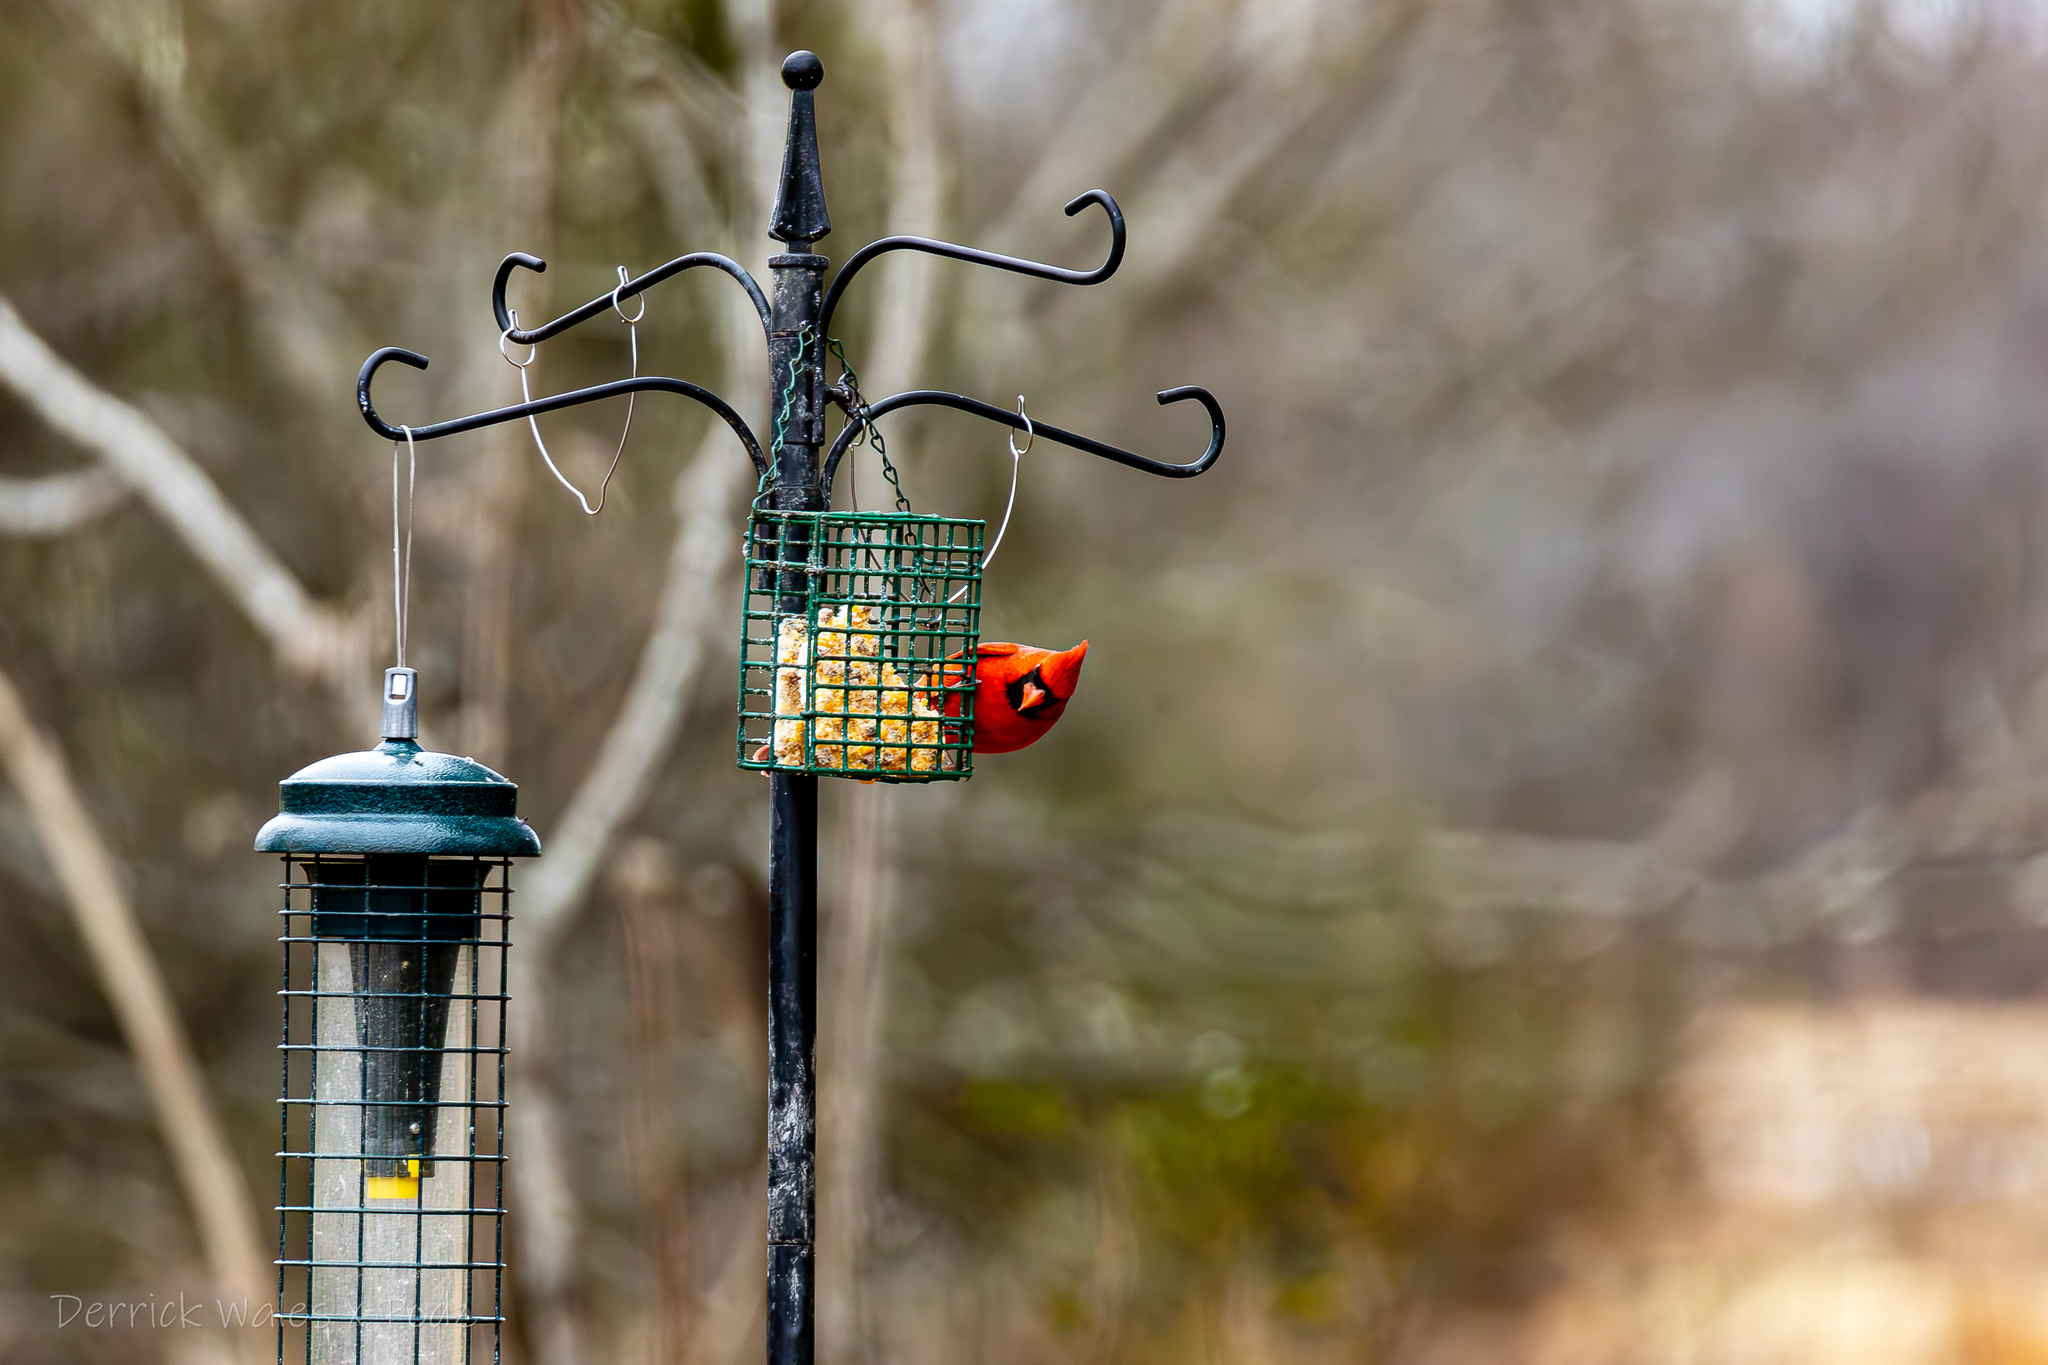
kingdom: Animalia
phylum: Chordata
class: Aves
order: Passeriformes
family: Cardinalidae
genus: Cardinalis
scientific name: Cardinalis cardinalis
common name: Northern cardinal
